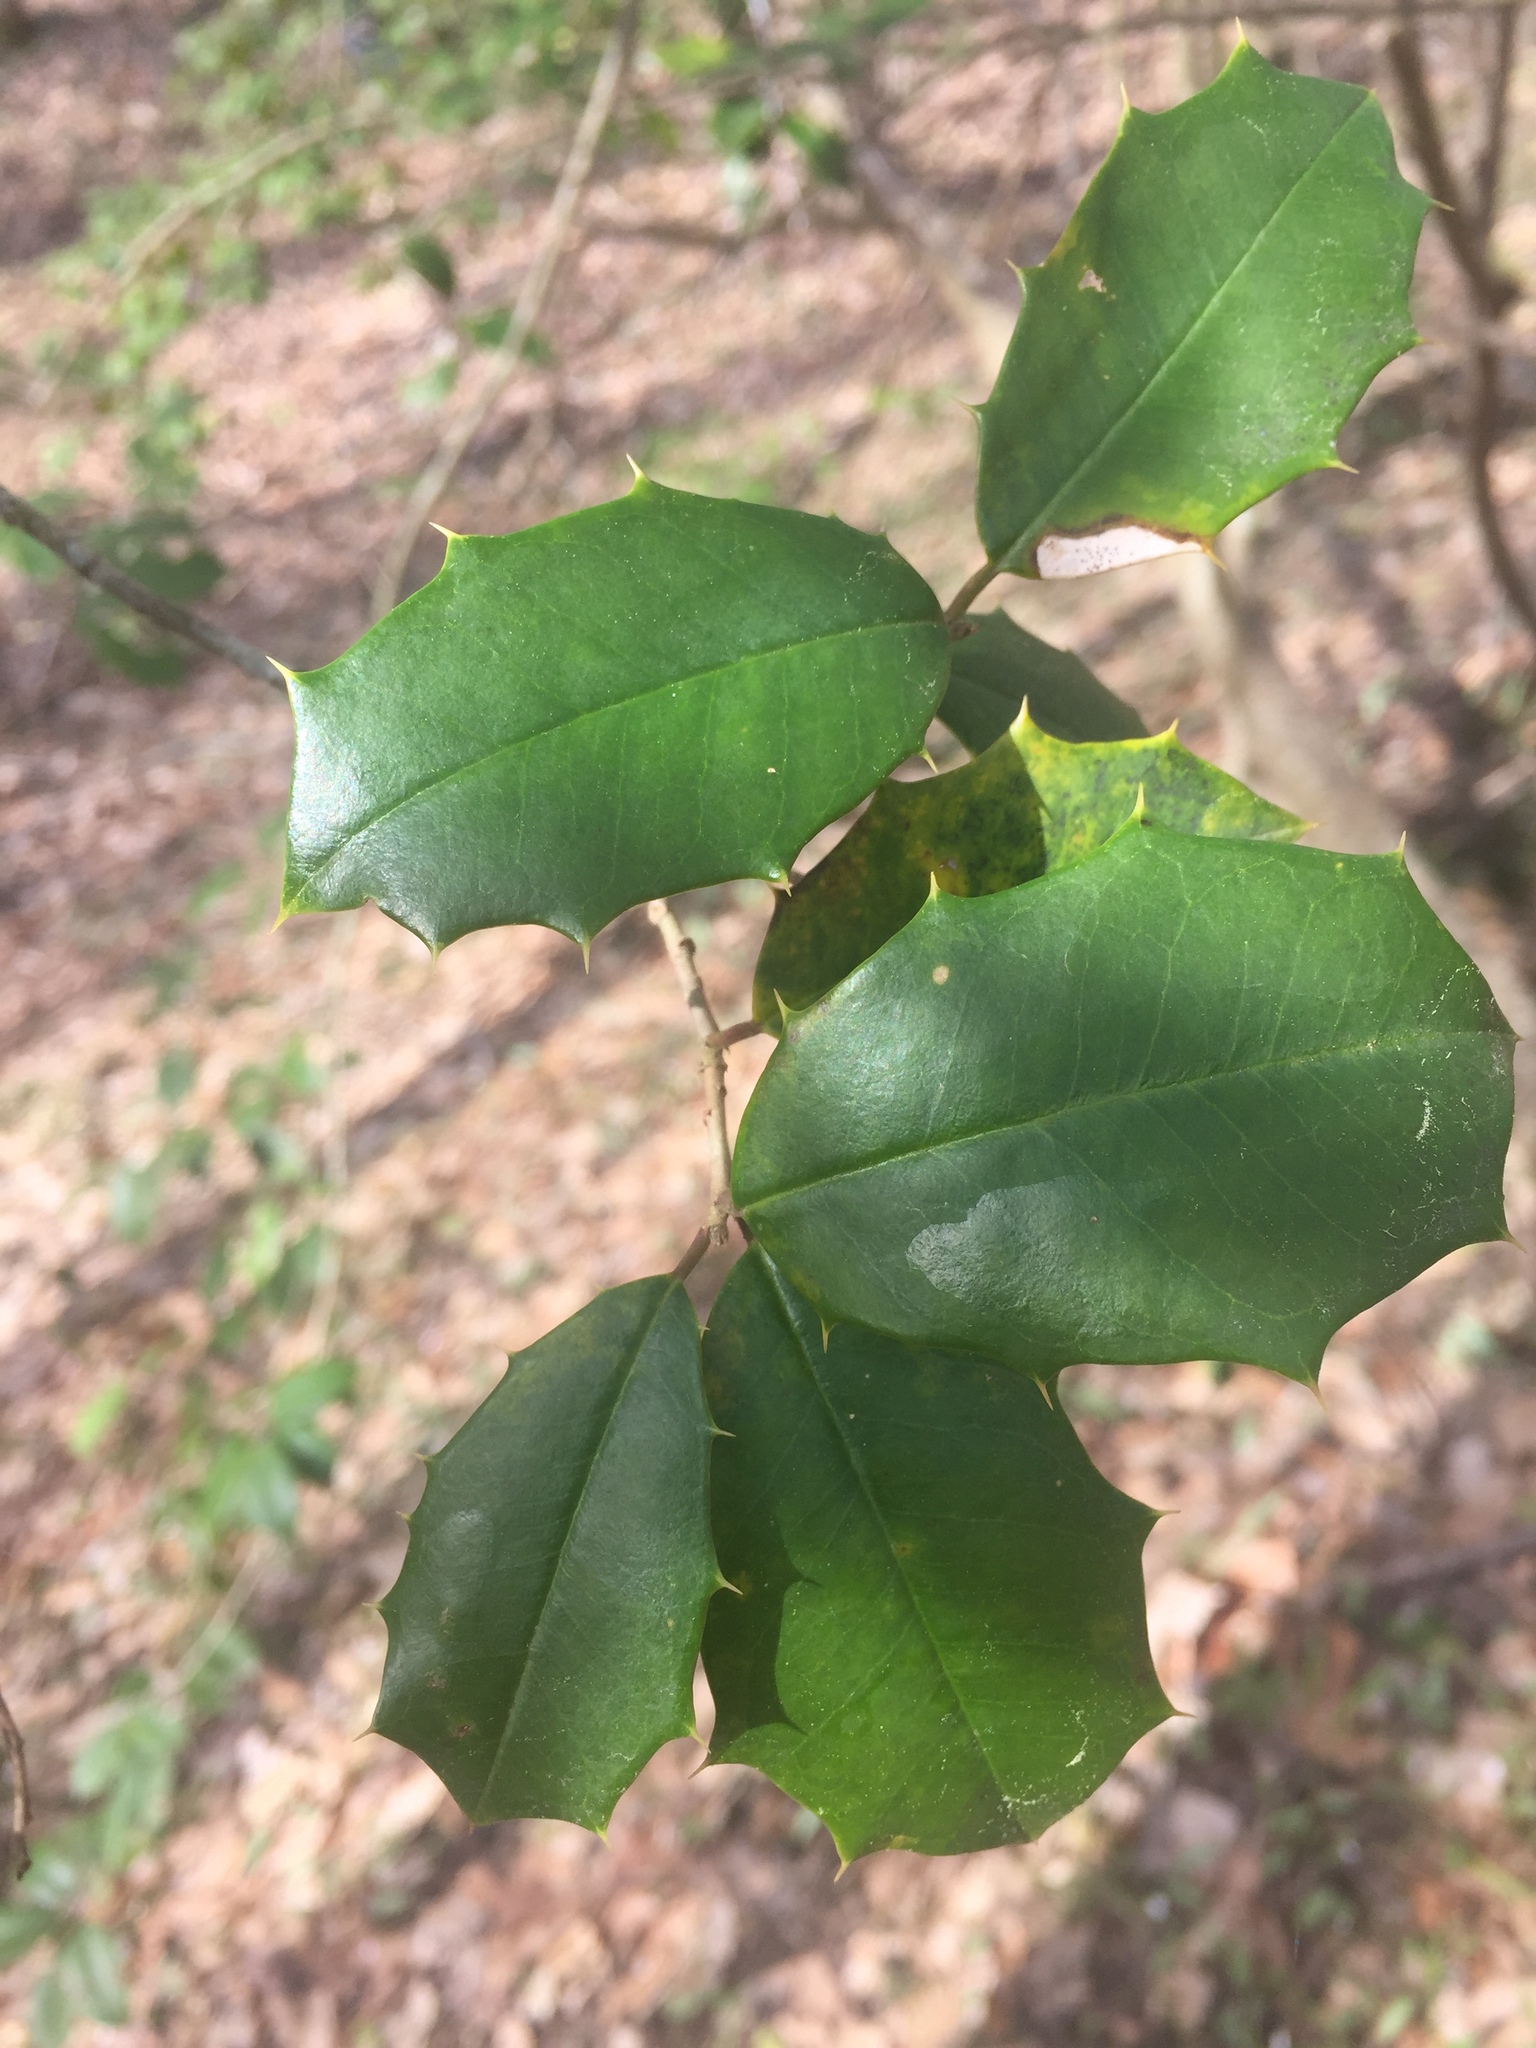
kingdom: Plantae
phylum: Tracheophyta
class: Magnoliopsida
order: Aquifoliales
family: Aquifoliaceae
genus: Ilex
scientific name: Ilex opaca
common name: American holly
